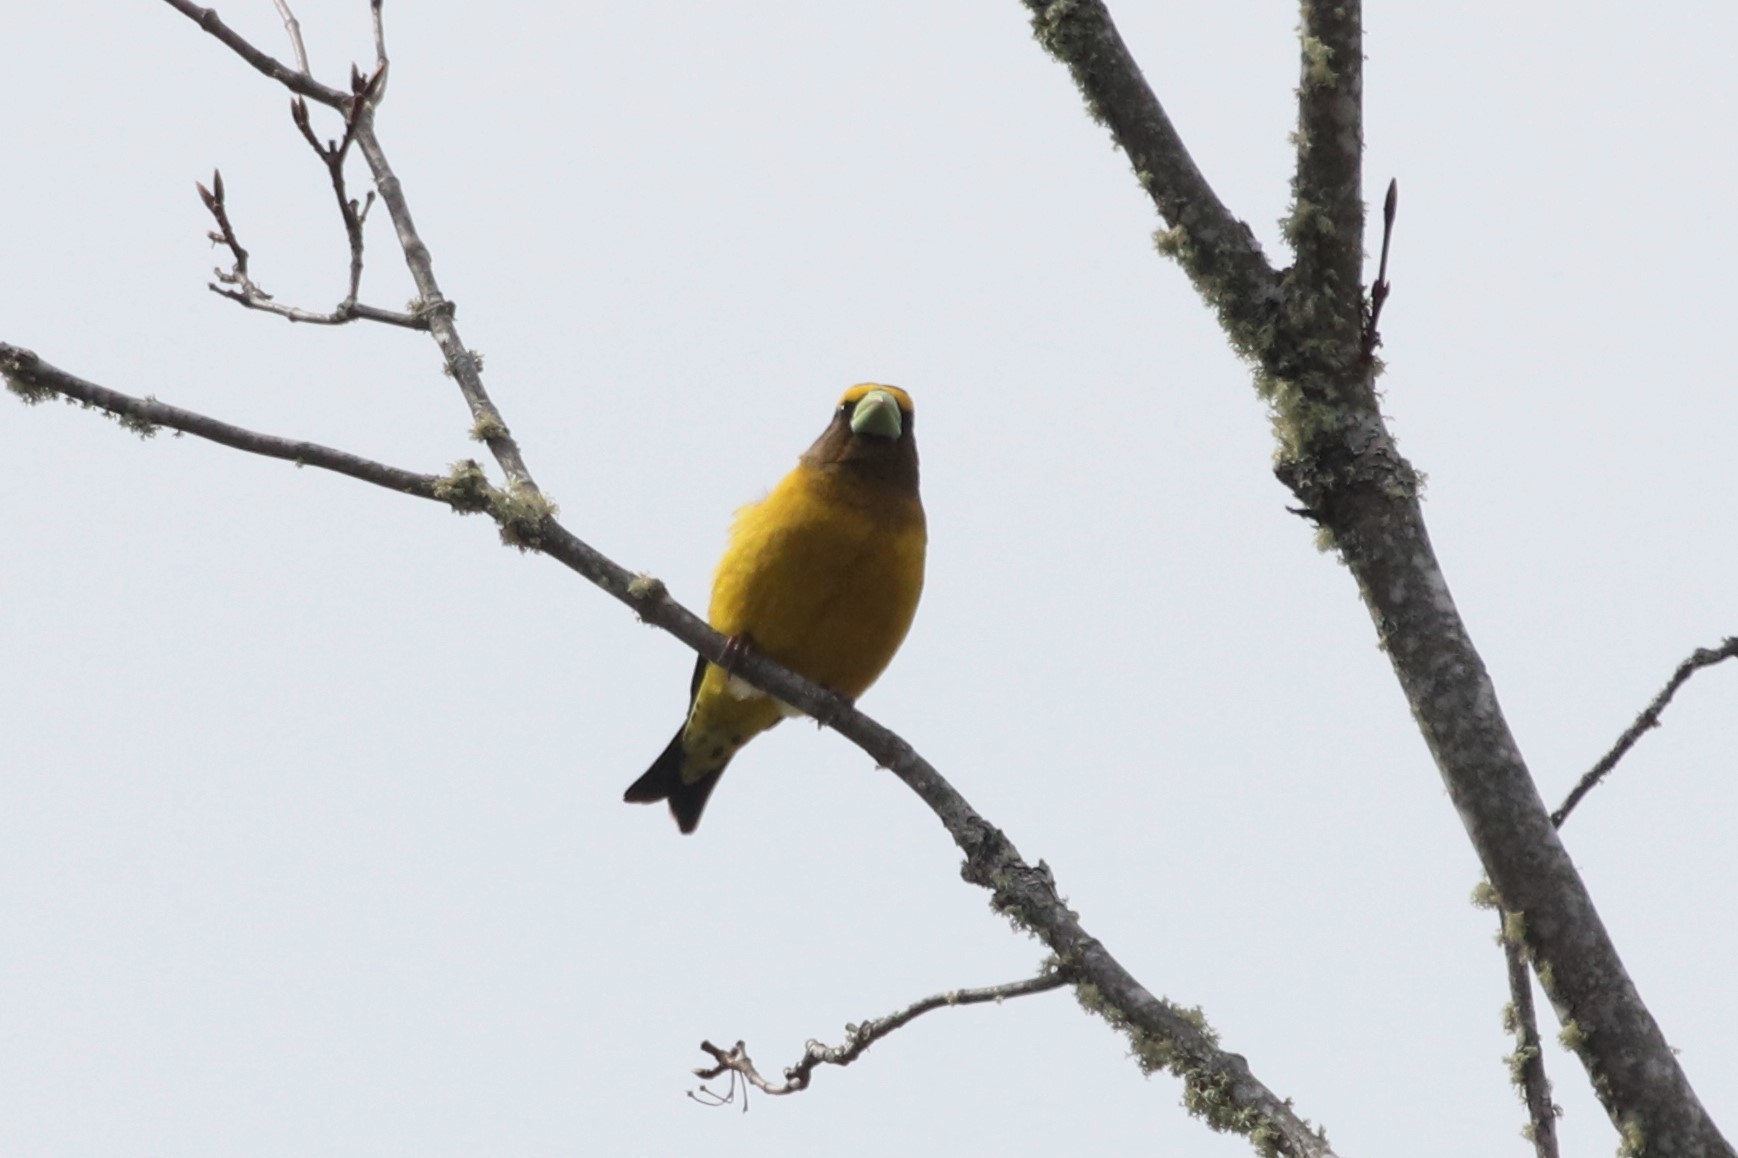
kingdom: Animalia
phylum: Chordata
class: Aves
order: Passeriformes
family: Fringillidae
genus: Hesperiphona
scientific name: Hesperiphona vespertina
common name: Evening grosbeak
